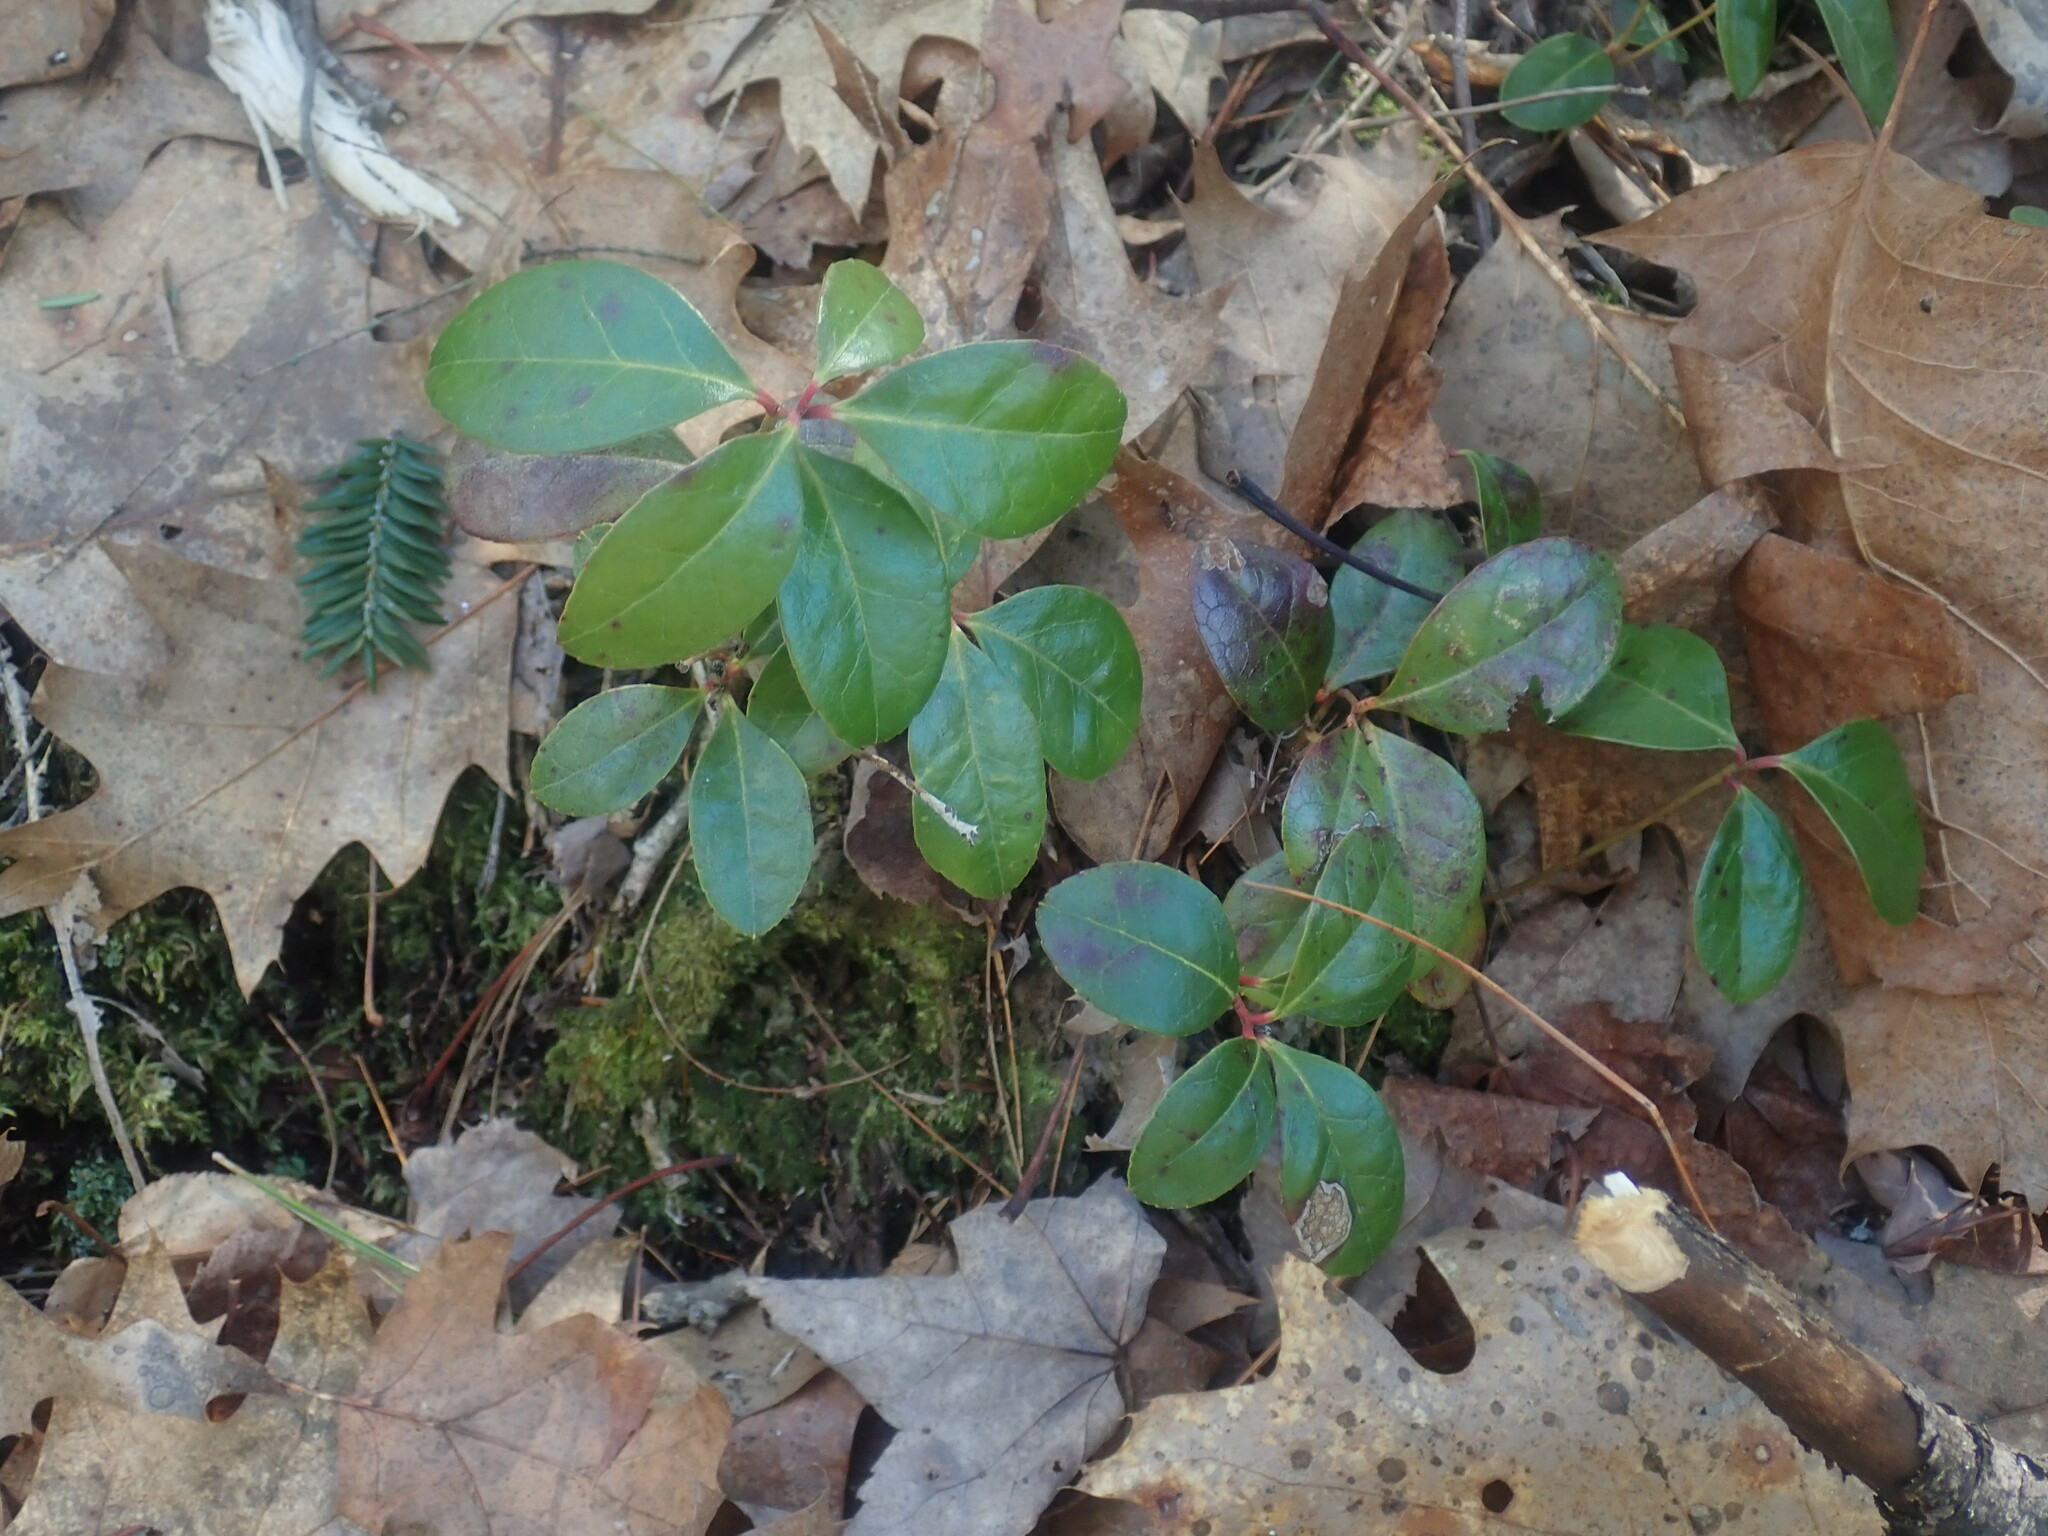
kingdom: Plantae
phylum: Tracheophyta
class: Magnoliopsida
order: Ericales
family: Ericaceae
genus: Gaultheria
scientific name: Gaultheria procumbens
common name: Checkerberry
